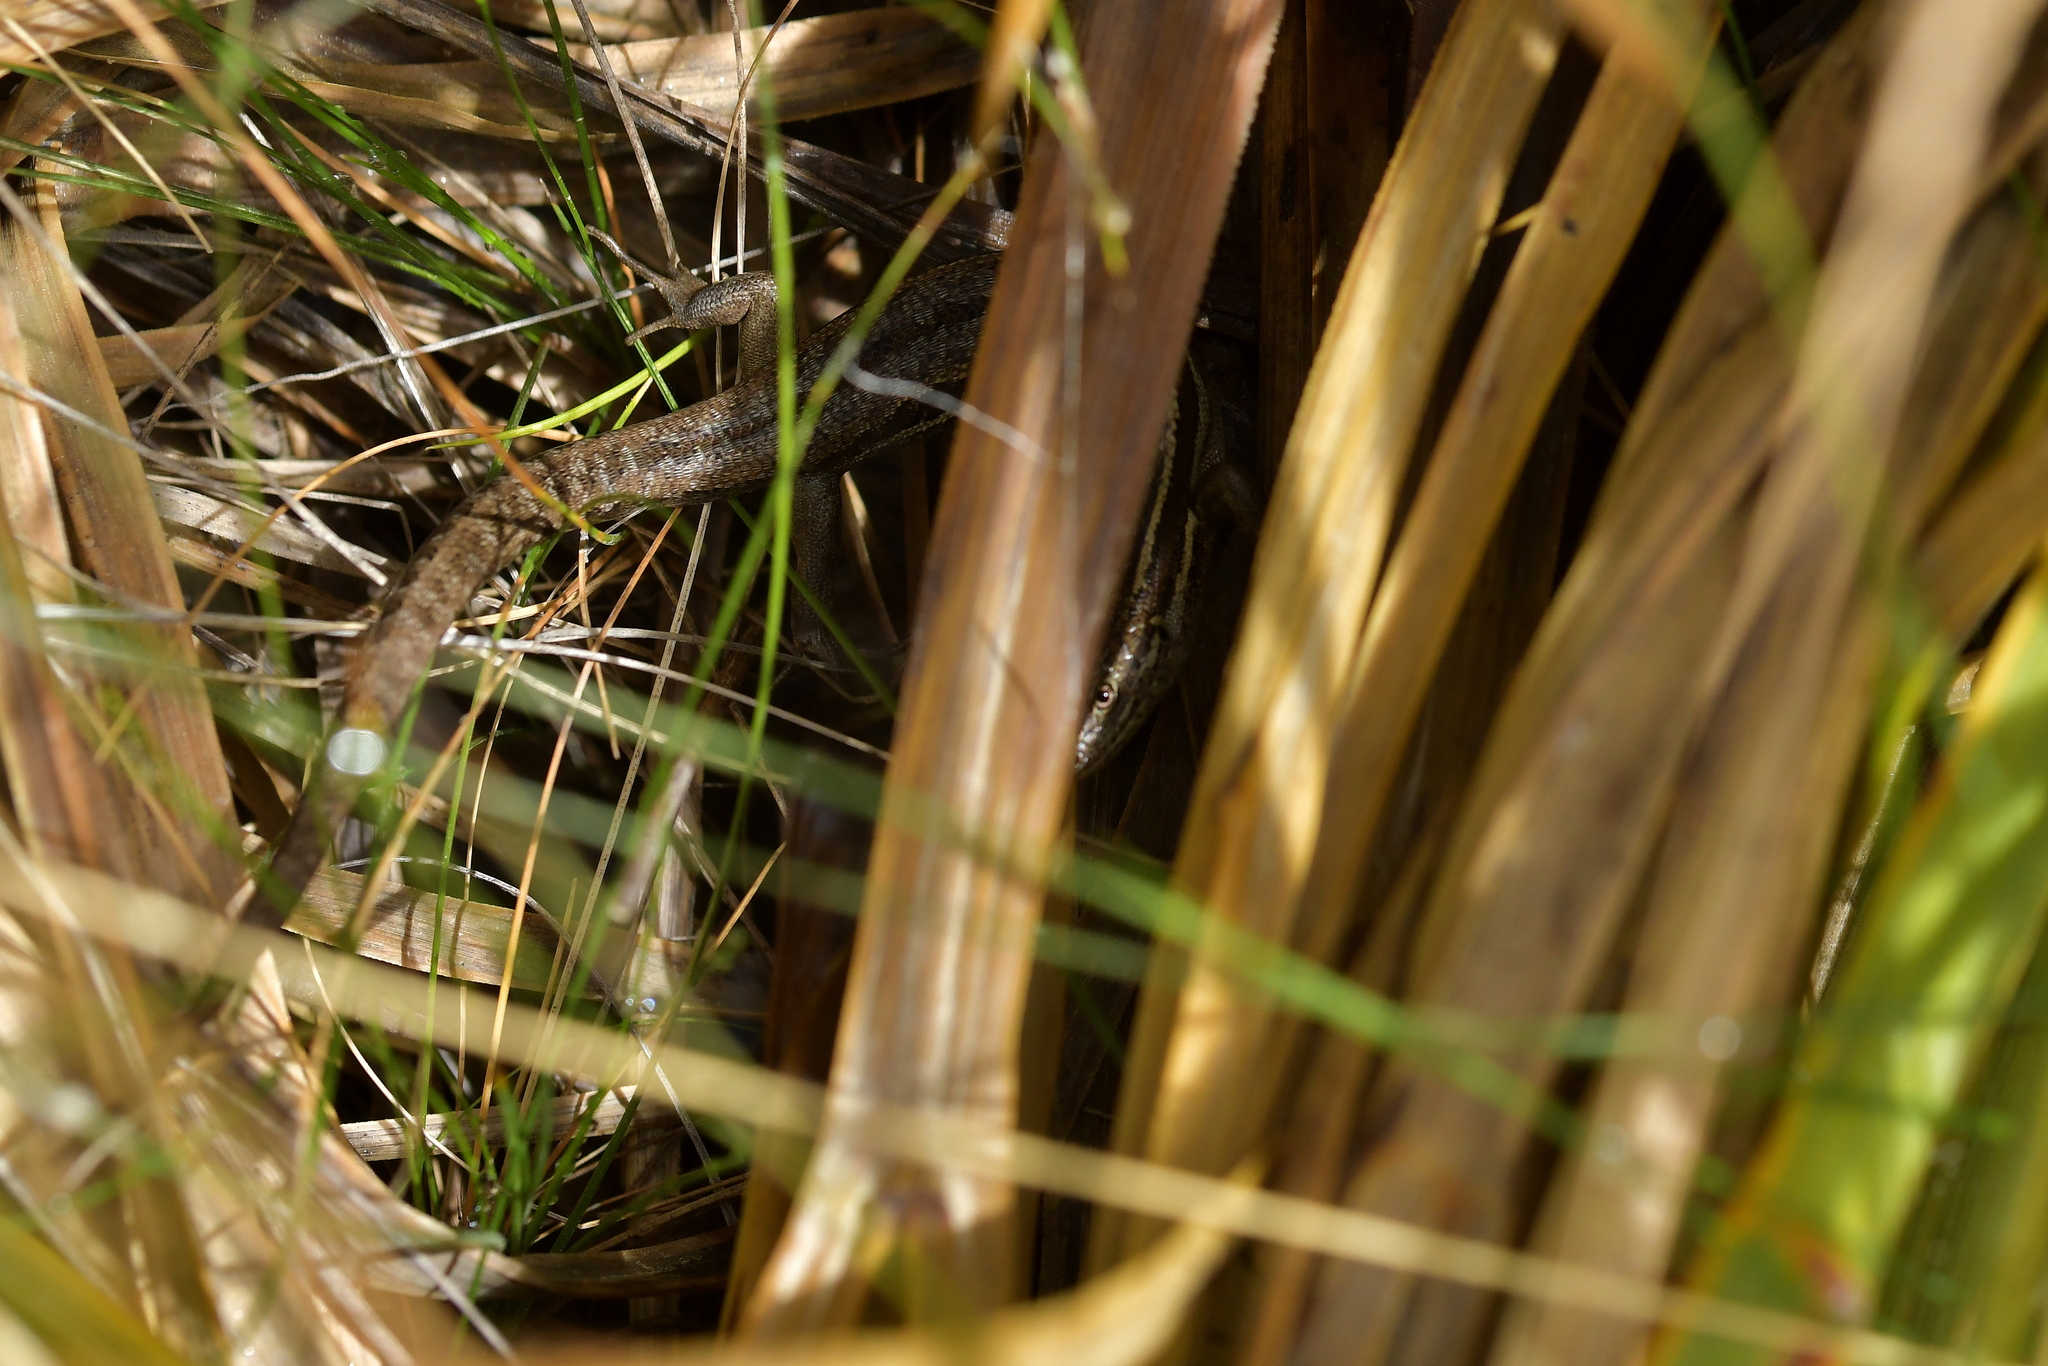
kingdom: Animalia
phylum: Chordata
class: Squamata
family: Scincidae
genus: Oligosoma
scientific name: Oligosoma maccanni
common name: Mccann’s skink
